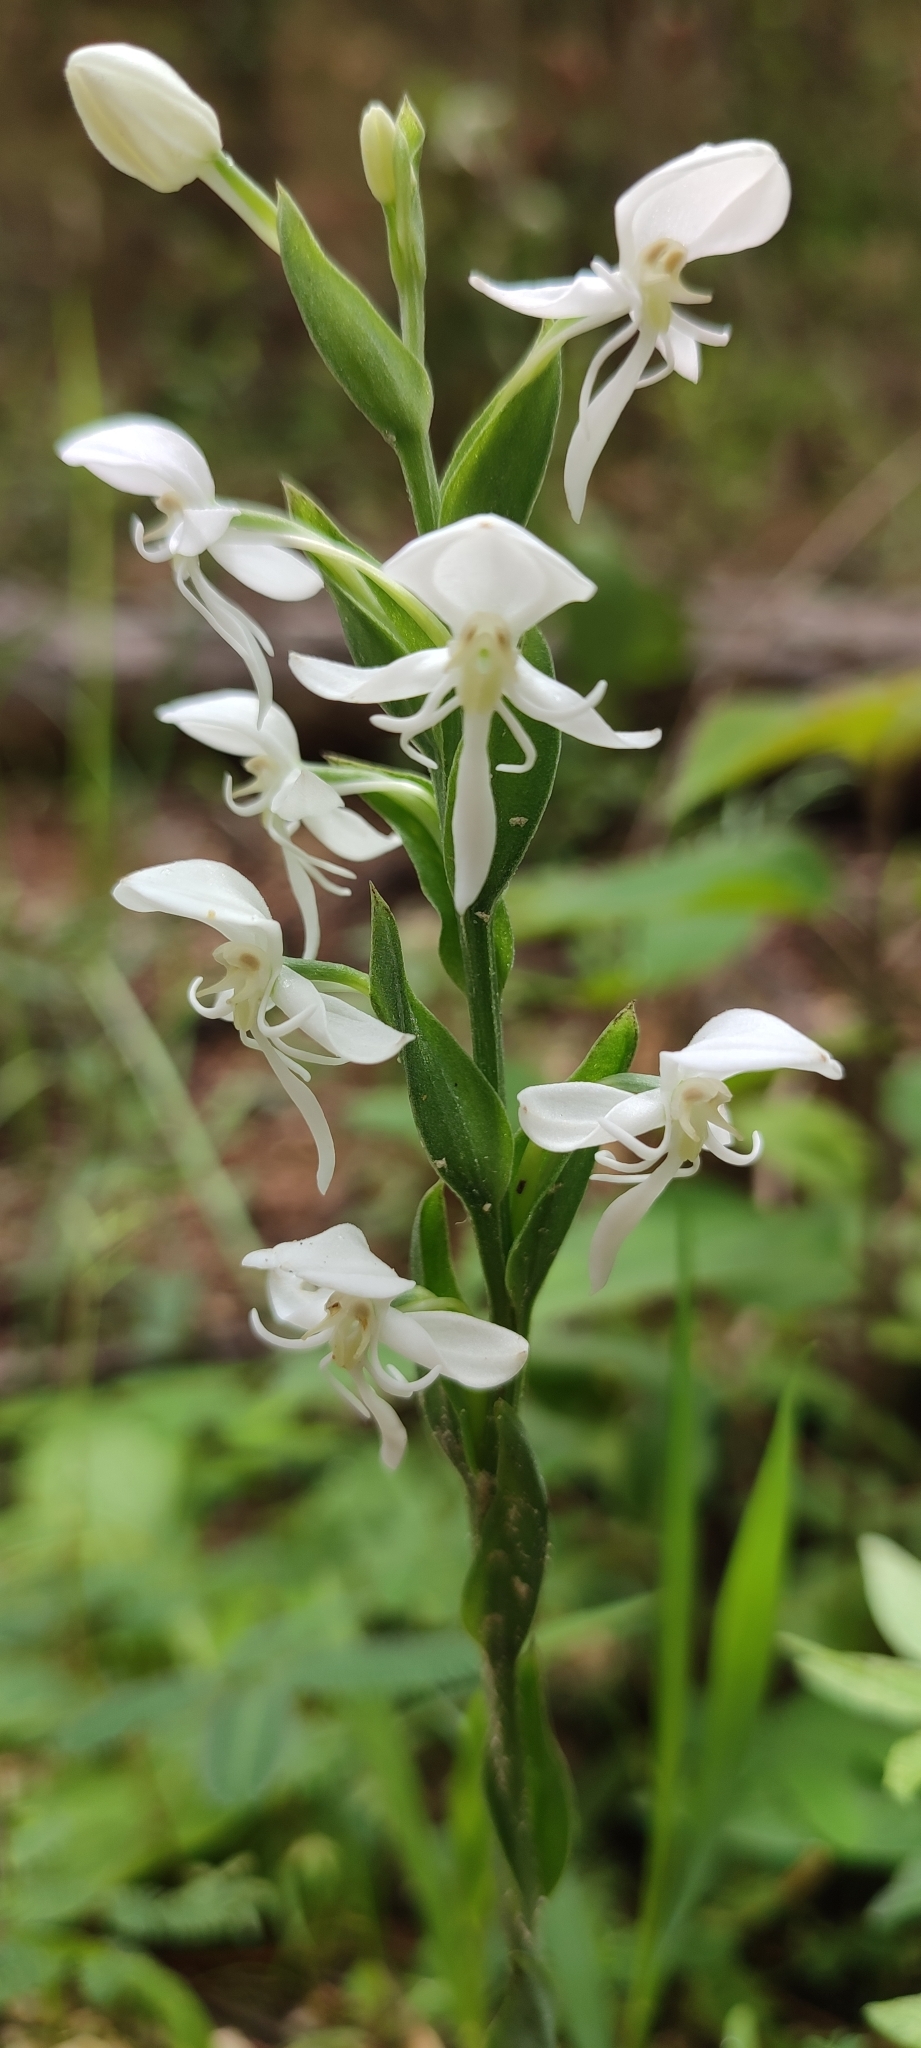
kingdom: Plantae
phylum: Tracheophyta
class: Liliopsida
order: Asparagales
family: Orchidaceae
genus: Habenaria
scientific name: Habenaria clypeata
